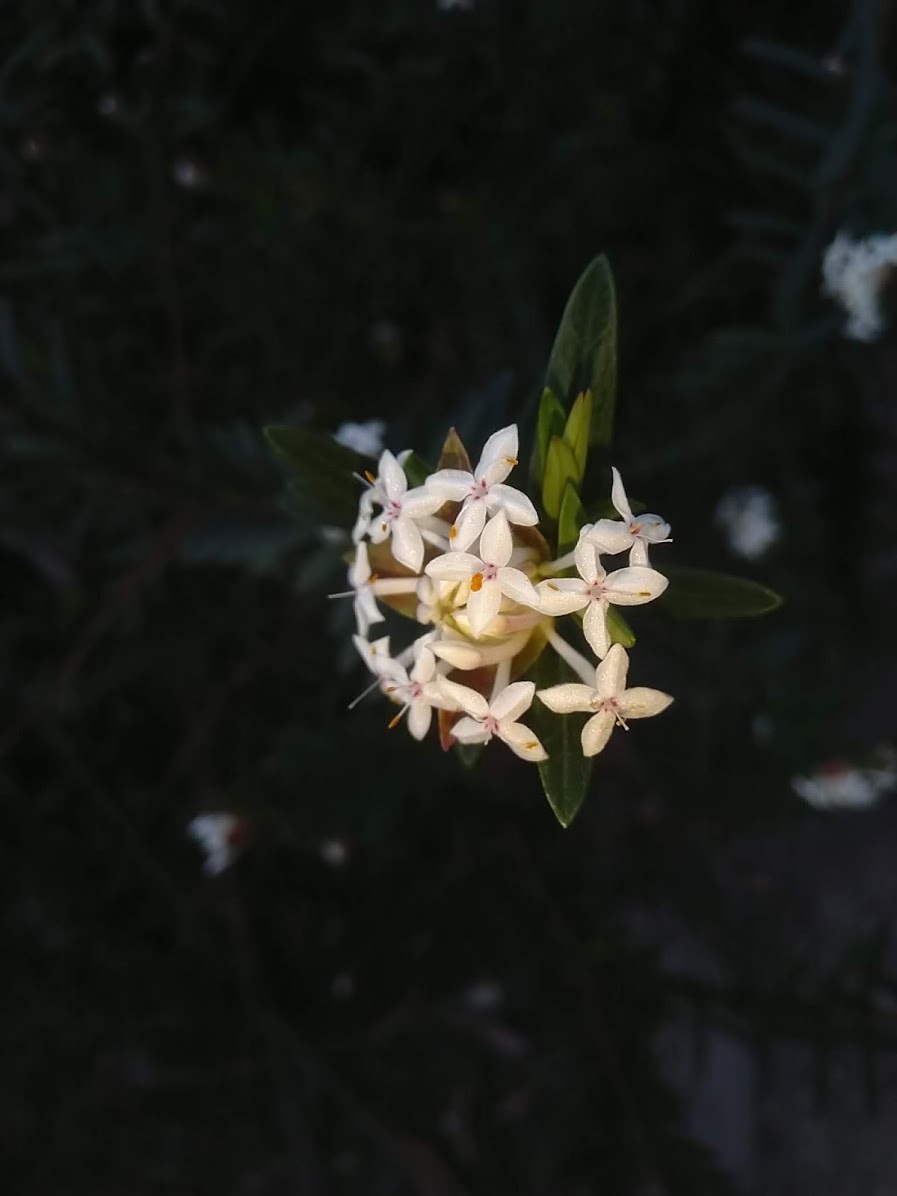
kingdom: Plantae
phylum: Tracheophyta
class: Magnoliopsida
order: Malvales
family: Thymelaeaceae
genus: Pimelea
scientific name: Pimelea linifolia
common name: Queen-of-the-bush
